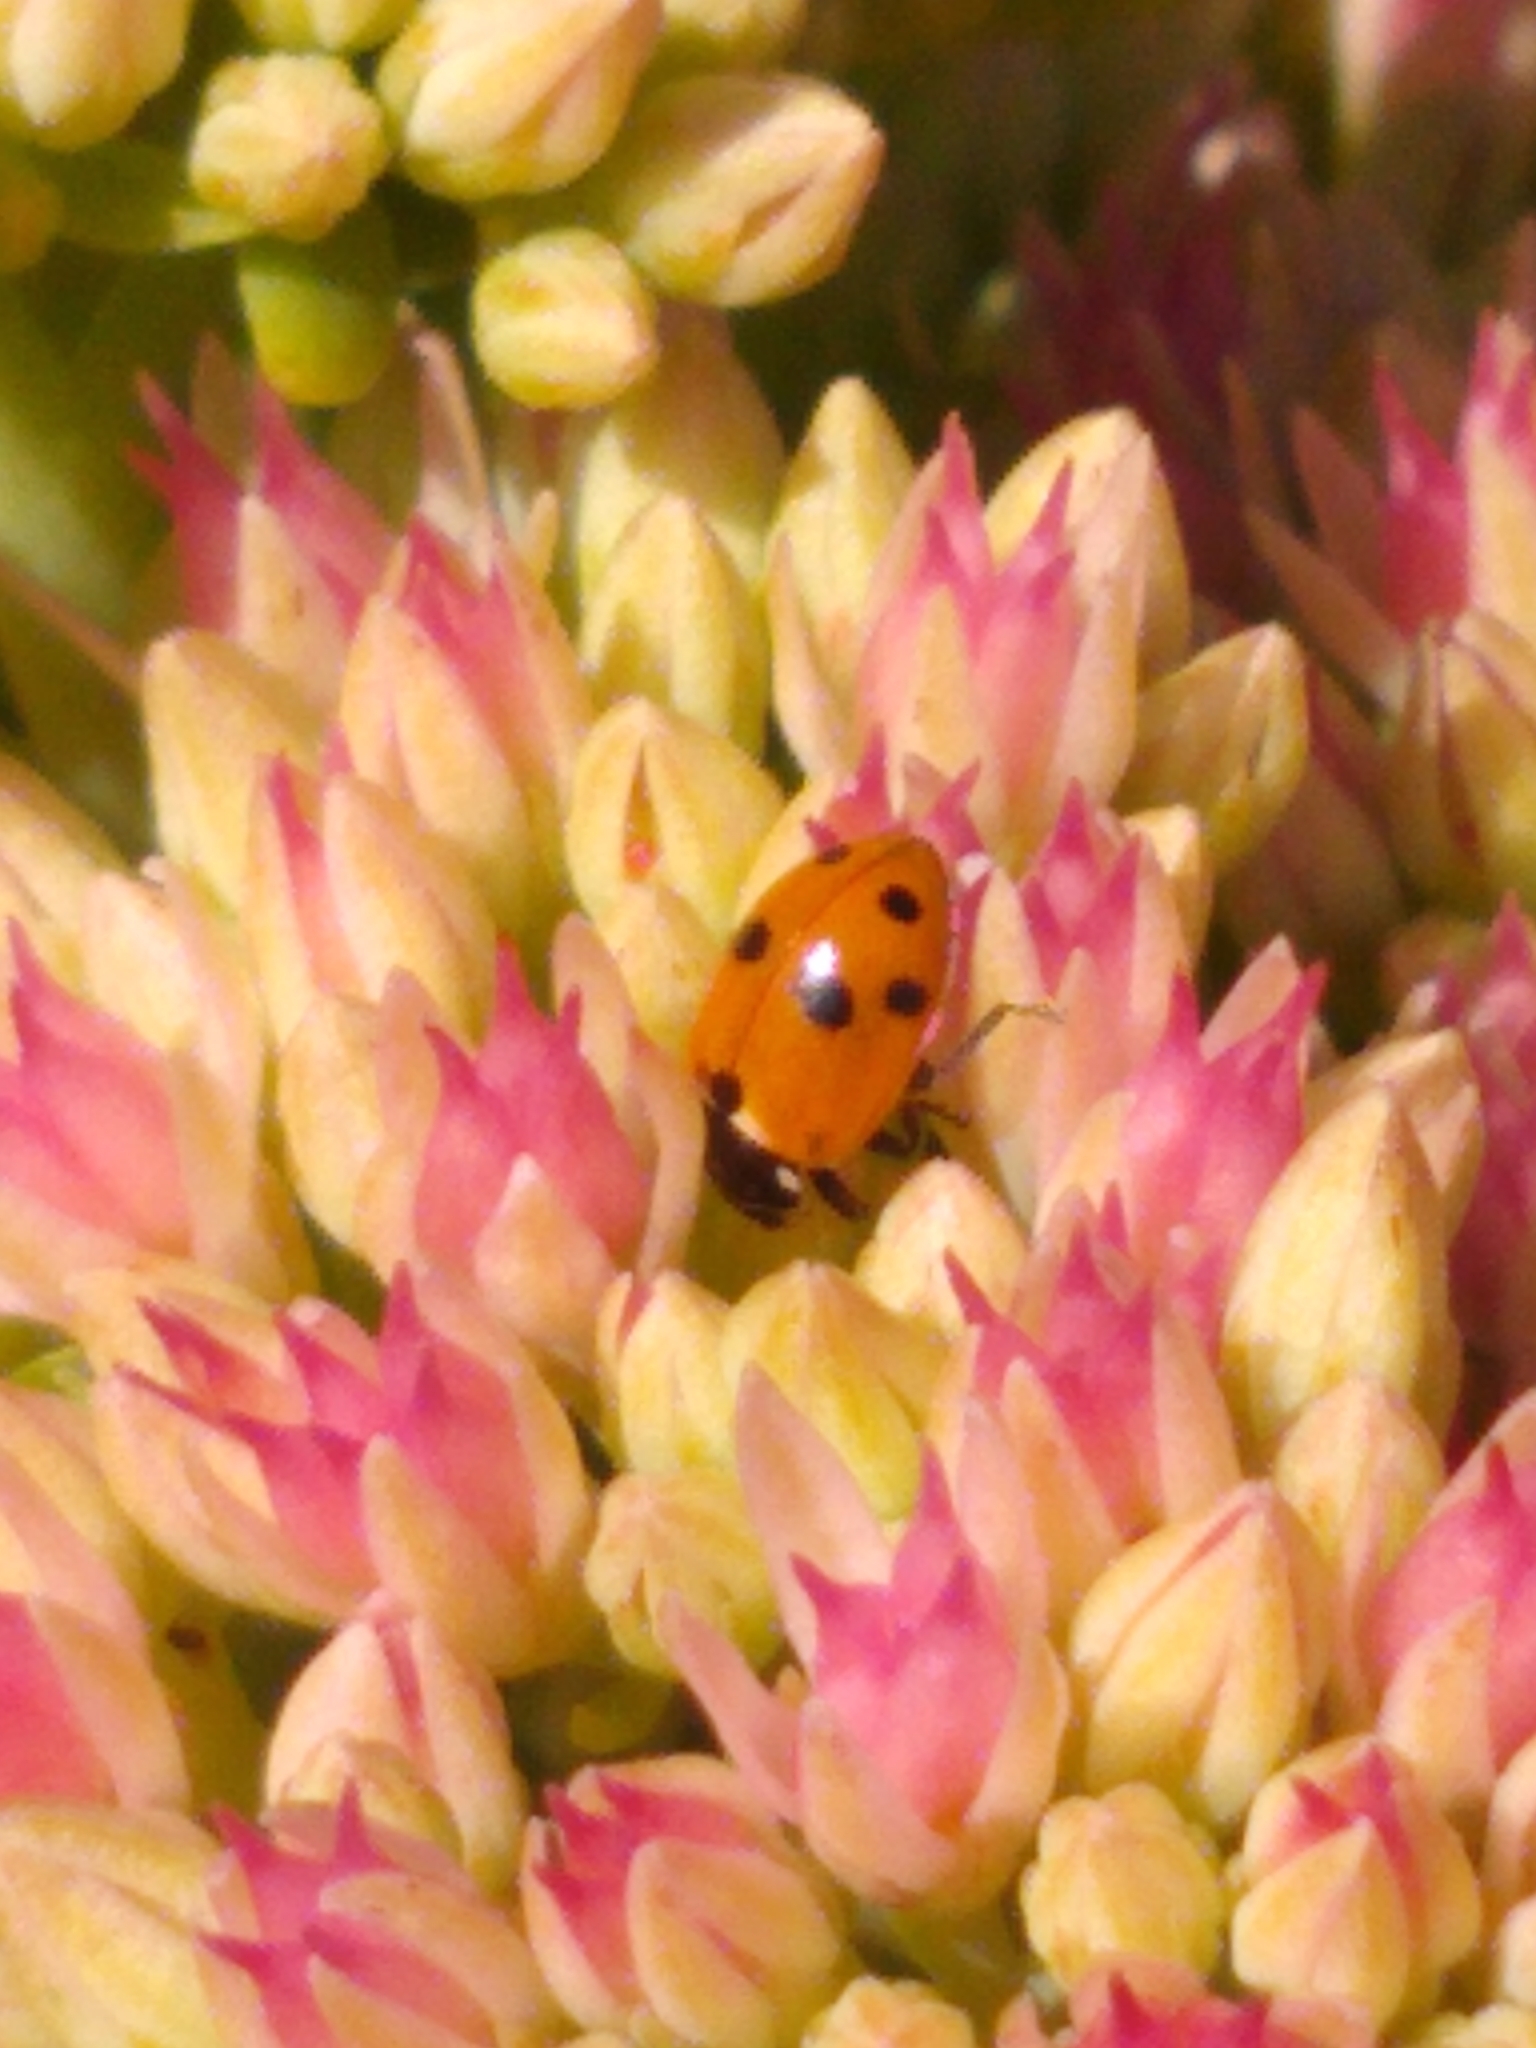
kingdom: Animalia
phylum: Arthropoda
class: Insecta
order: Coleoptera
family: Coccinellidae
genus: Hippodamia
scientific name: Hippodamia variegata
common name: Ladybird beetle
